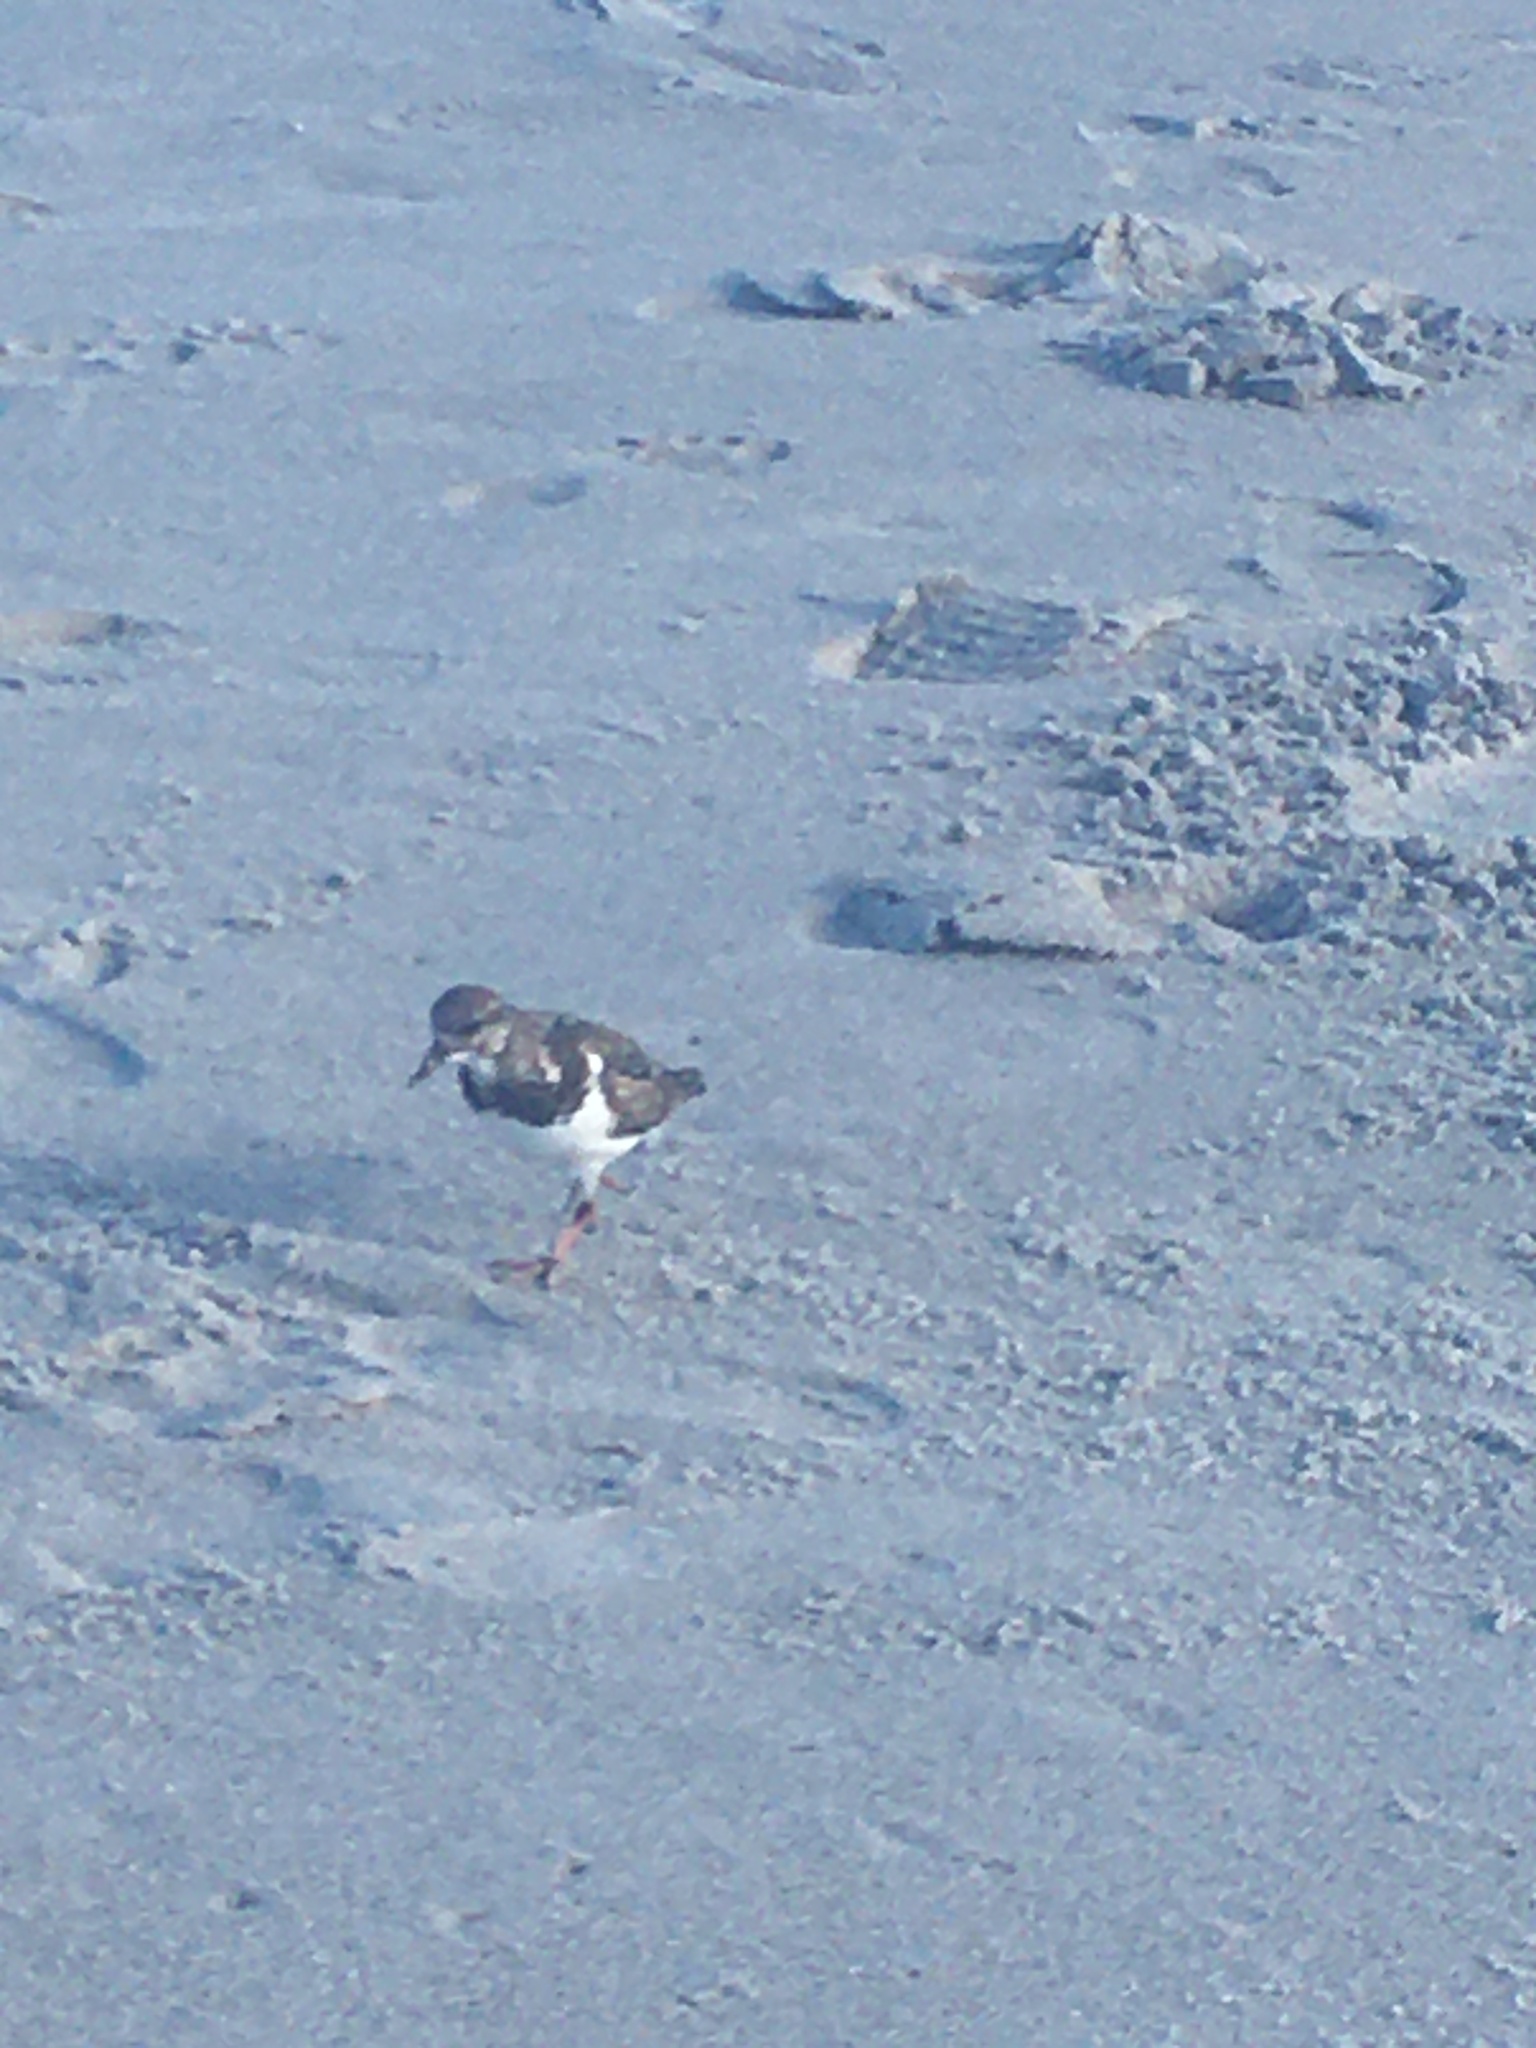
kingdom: Animalia
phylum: Chordata
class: Aves
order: Charadriiformes
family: Scolopacidae
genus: Arenaria
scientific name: Arenaria interpres
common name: Ruddy turnstone
